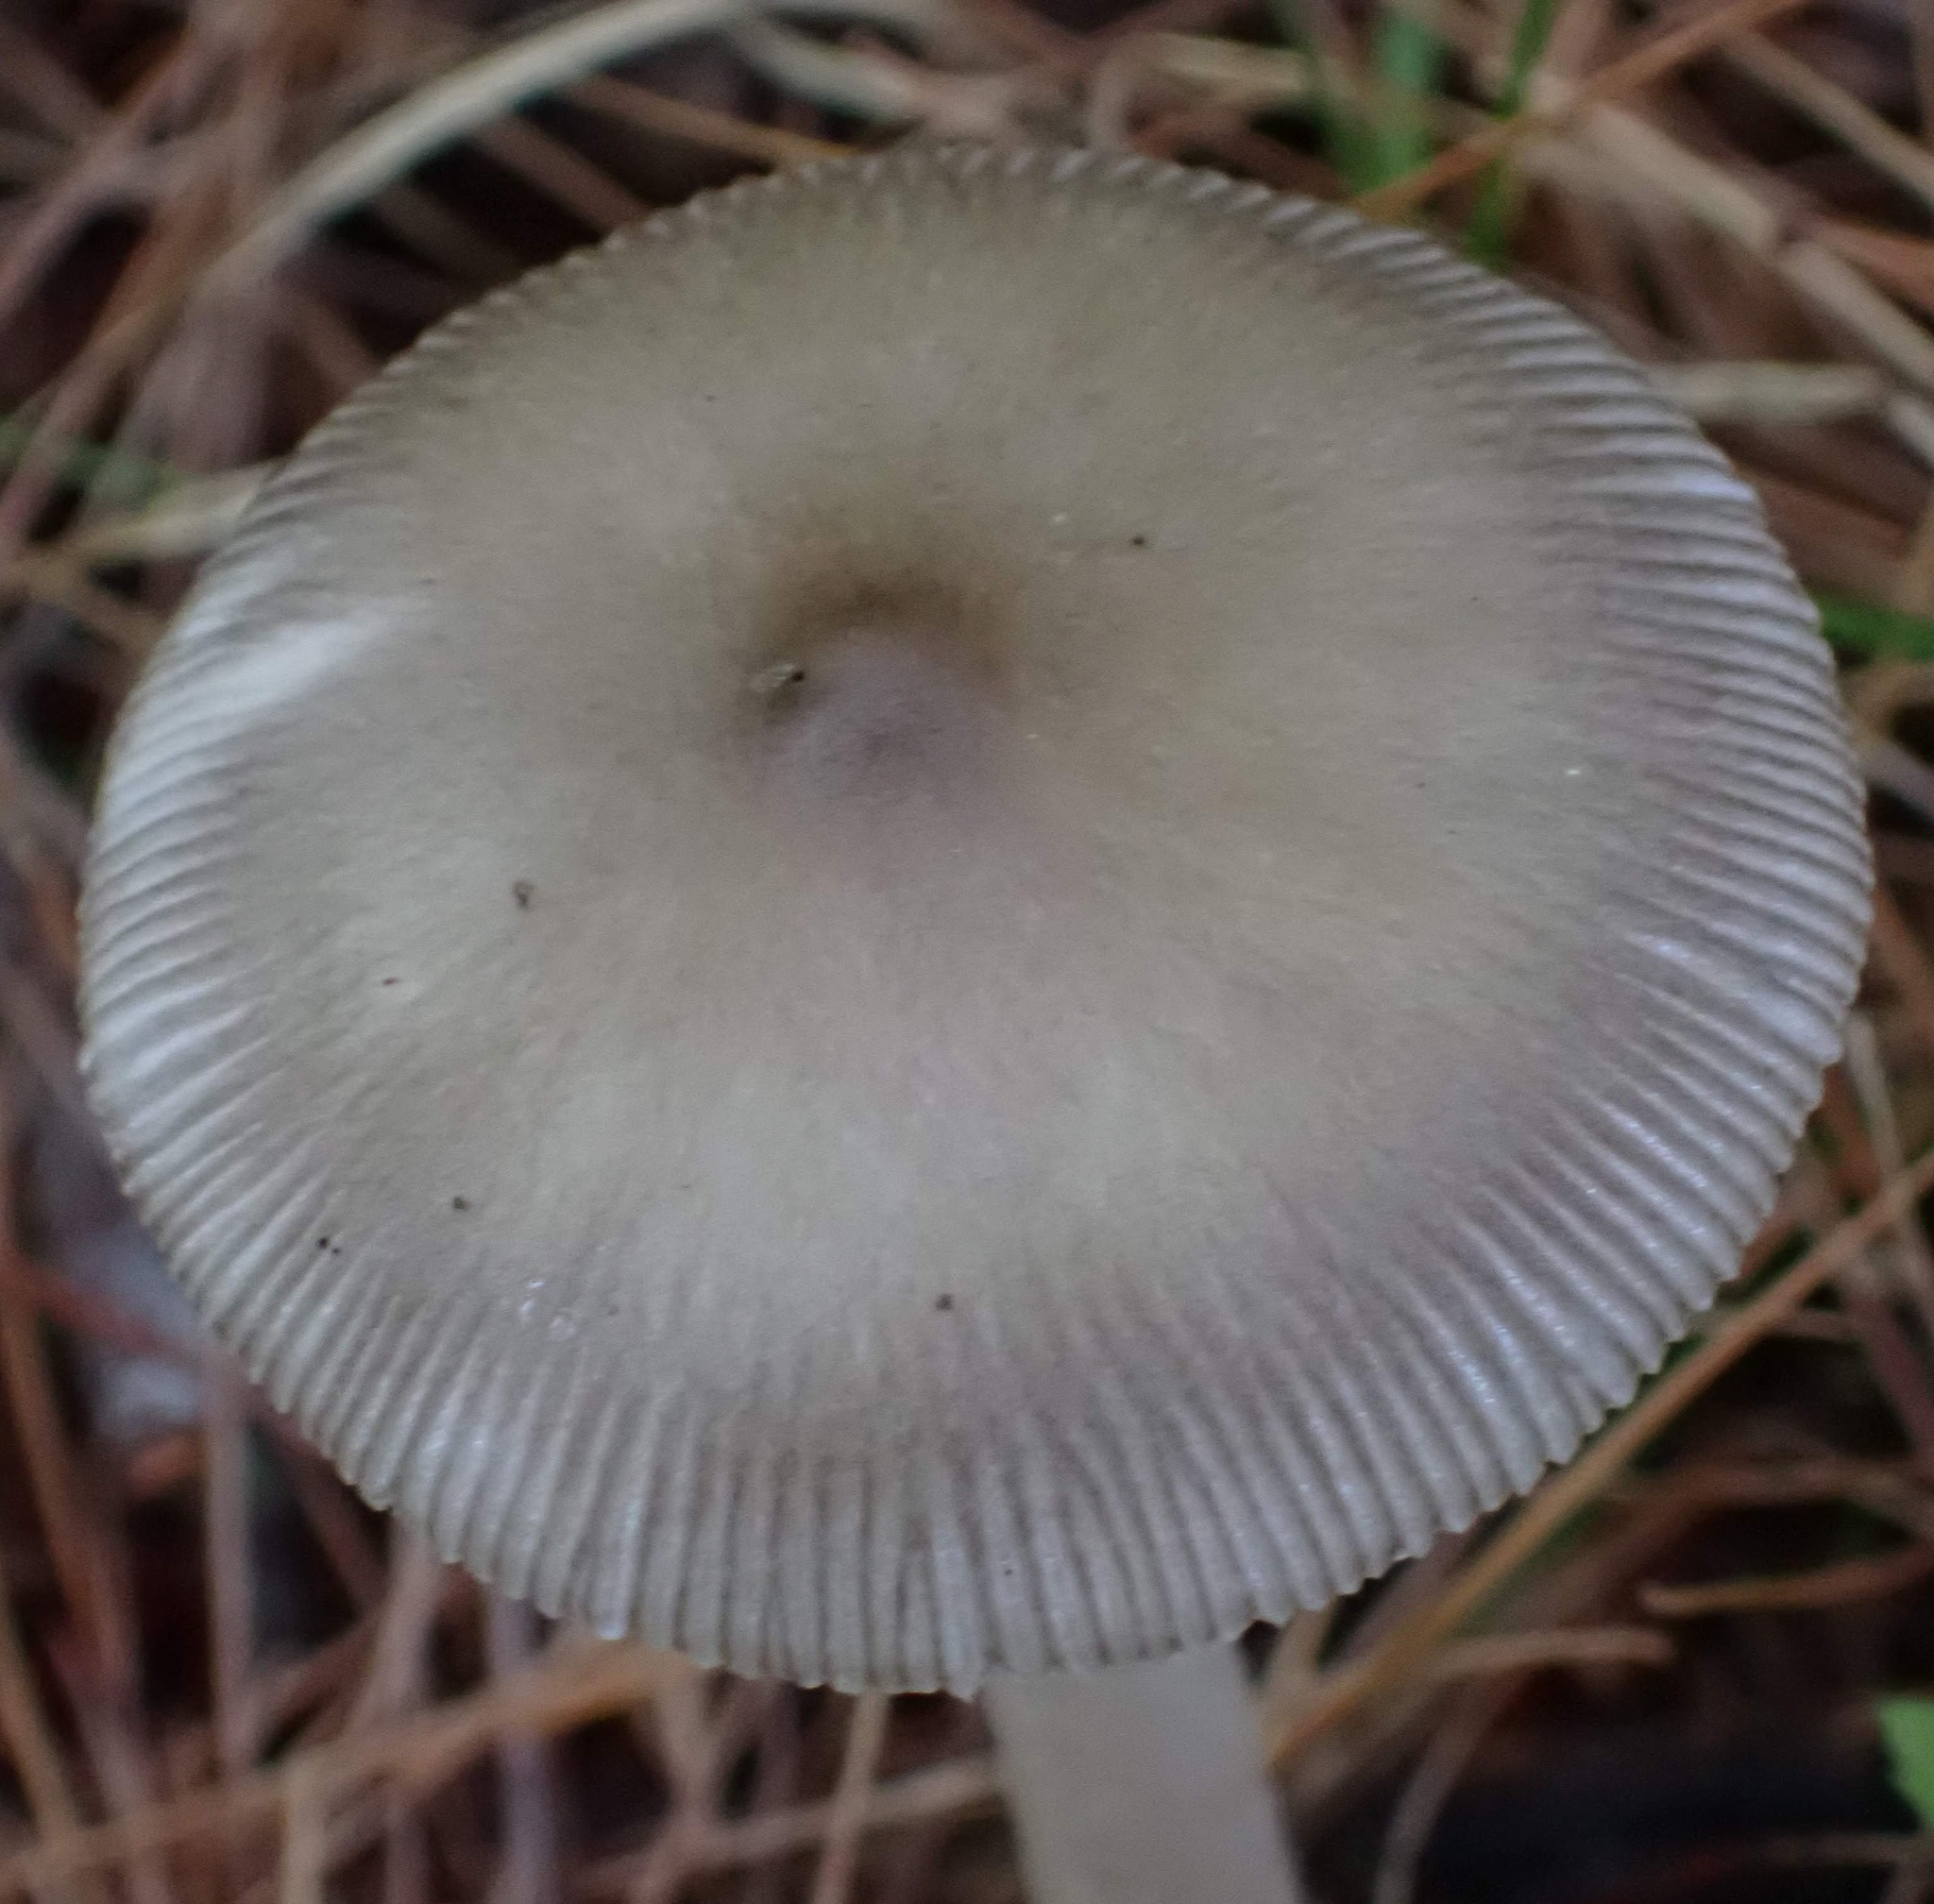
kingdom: Fungi
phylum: Basidiomycota
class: Agaricomycetes
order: Agaricales
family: Amanitaceae
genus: Amanita
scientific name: Amanita
